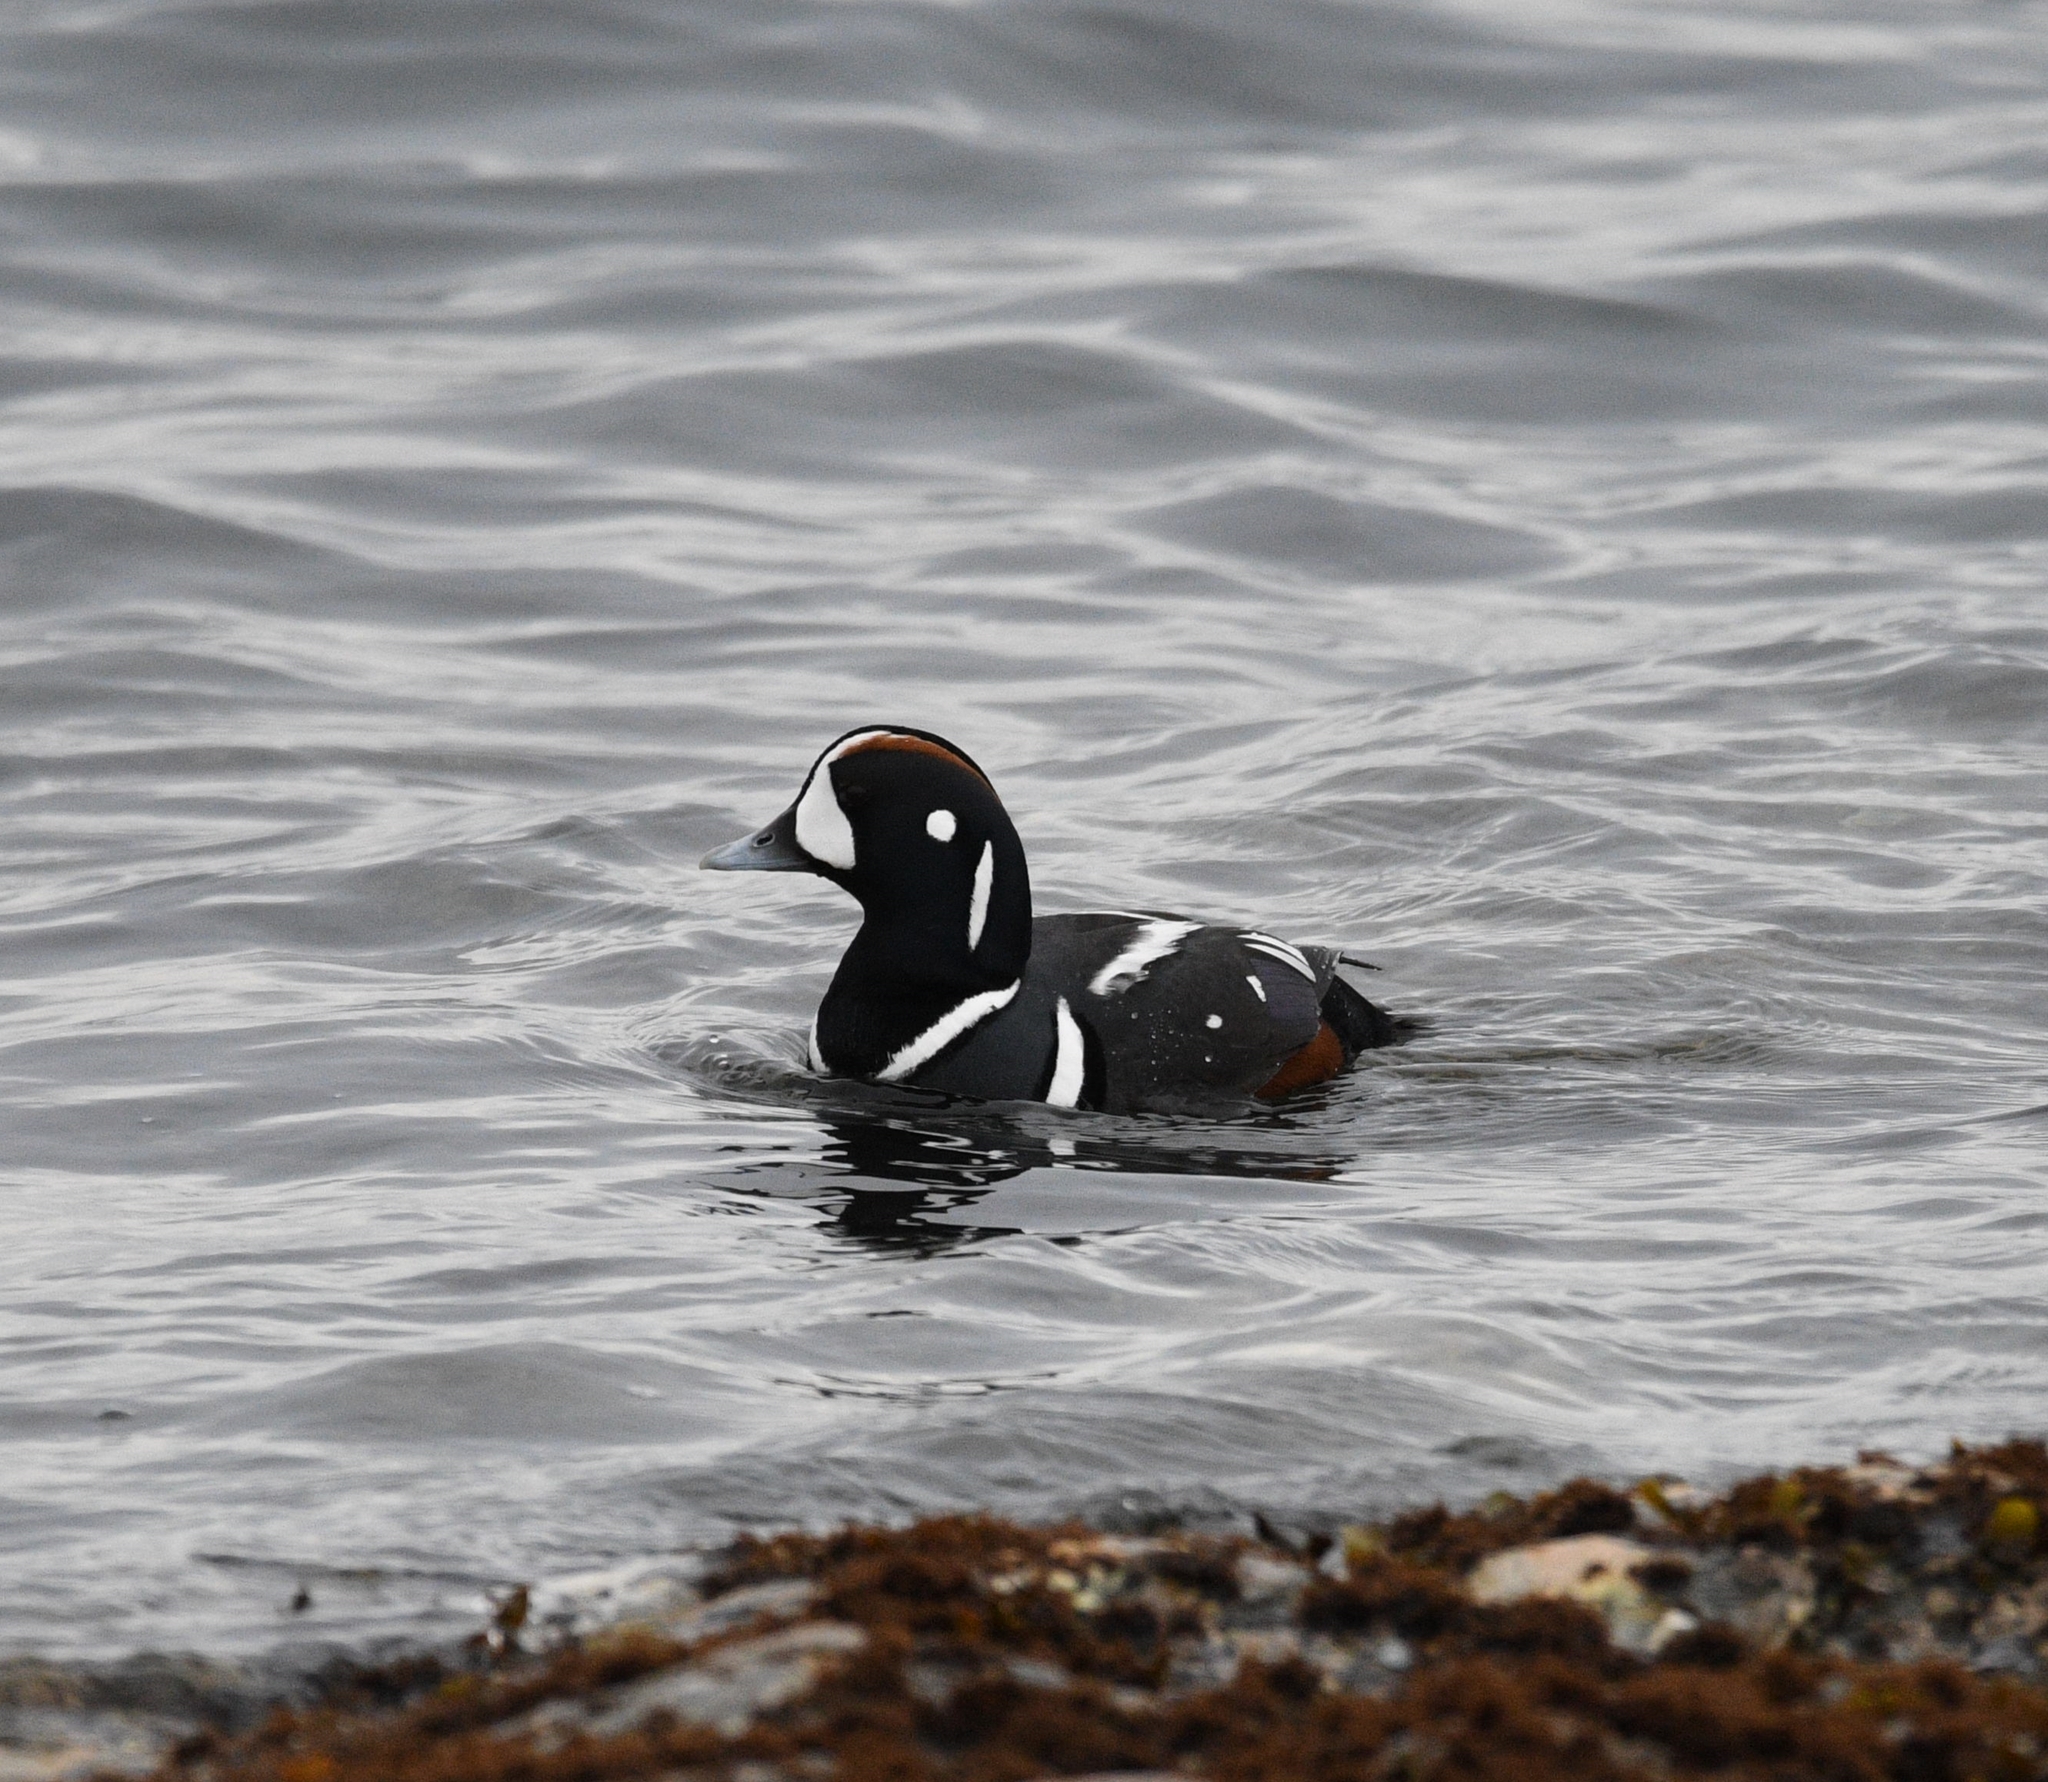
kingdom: Animalia
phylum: Chordata
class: Aves
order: Anseriformes
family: Anatidae
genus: Histrionicus
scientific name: Histrionicus histrionicus
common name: Harlequin duck
